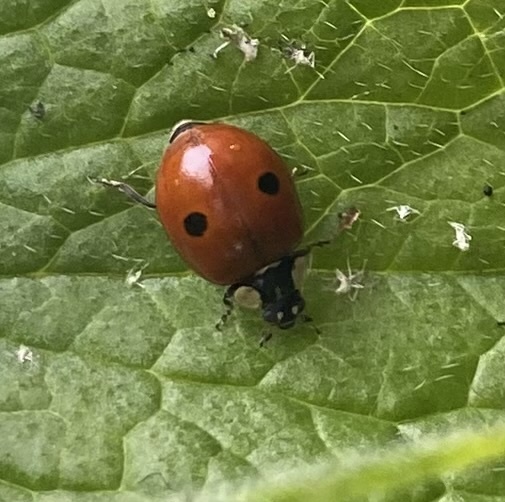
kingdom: Animalia
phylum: Arthropoda
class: Insecta
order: Coleoptera
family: Coccinellidae
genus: Adalia
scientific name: Adalia bipunctata
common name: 2-spot ladybird
